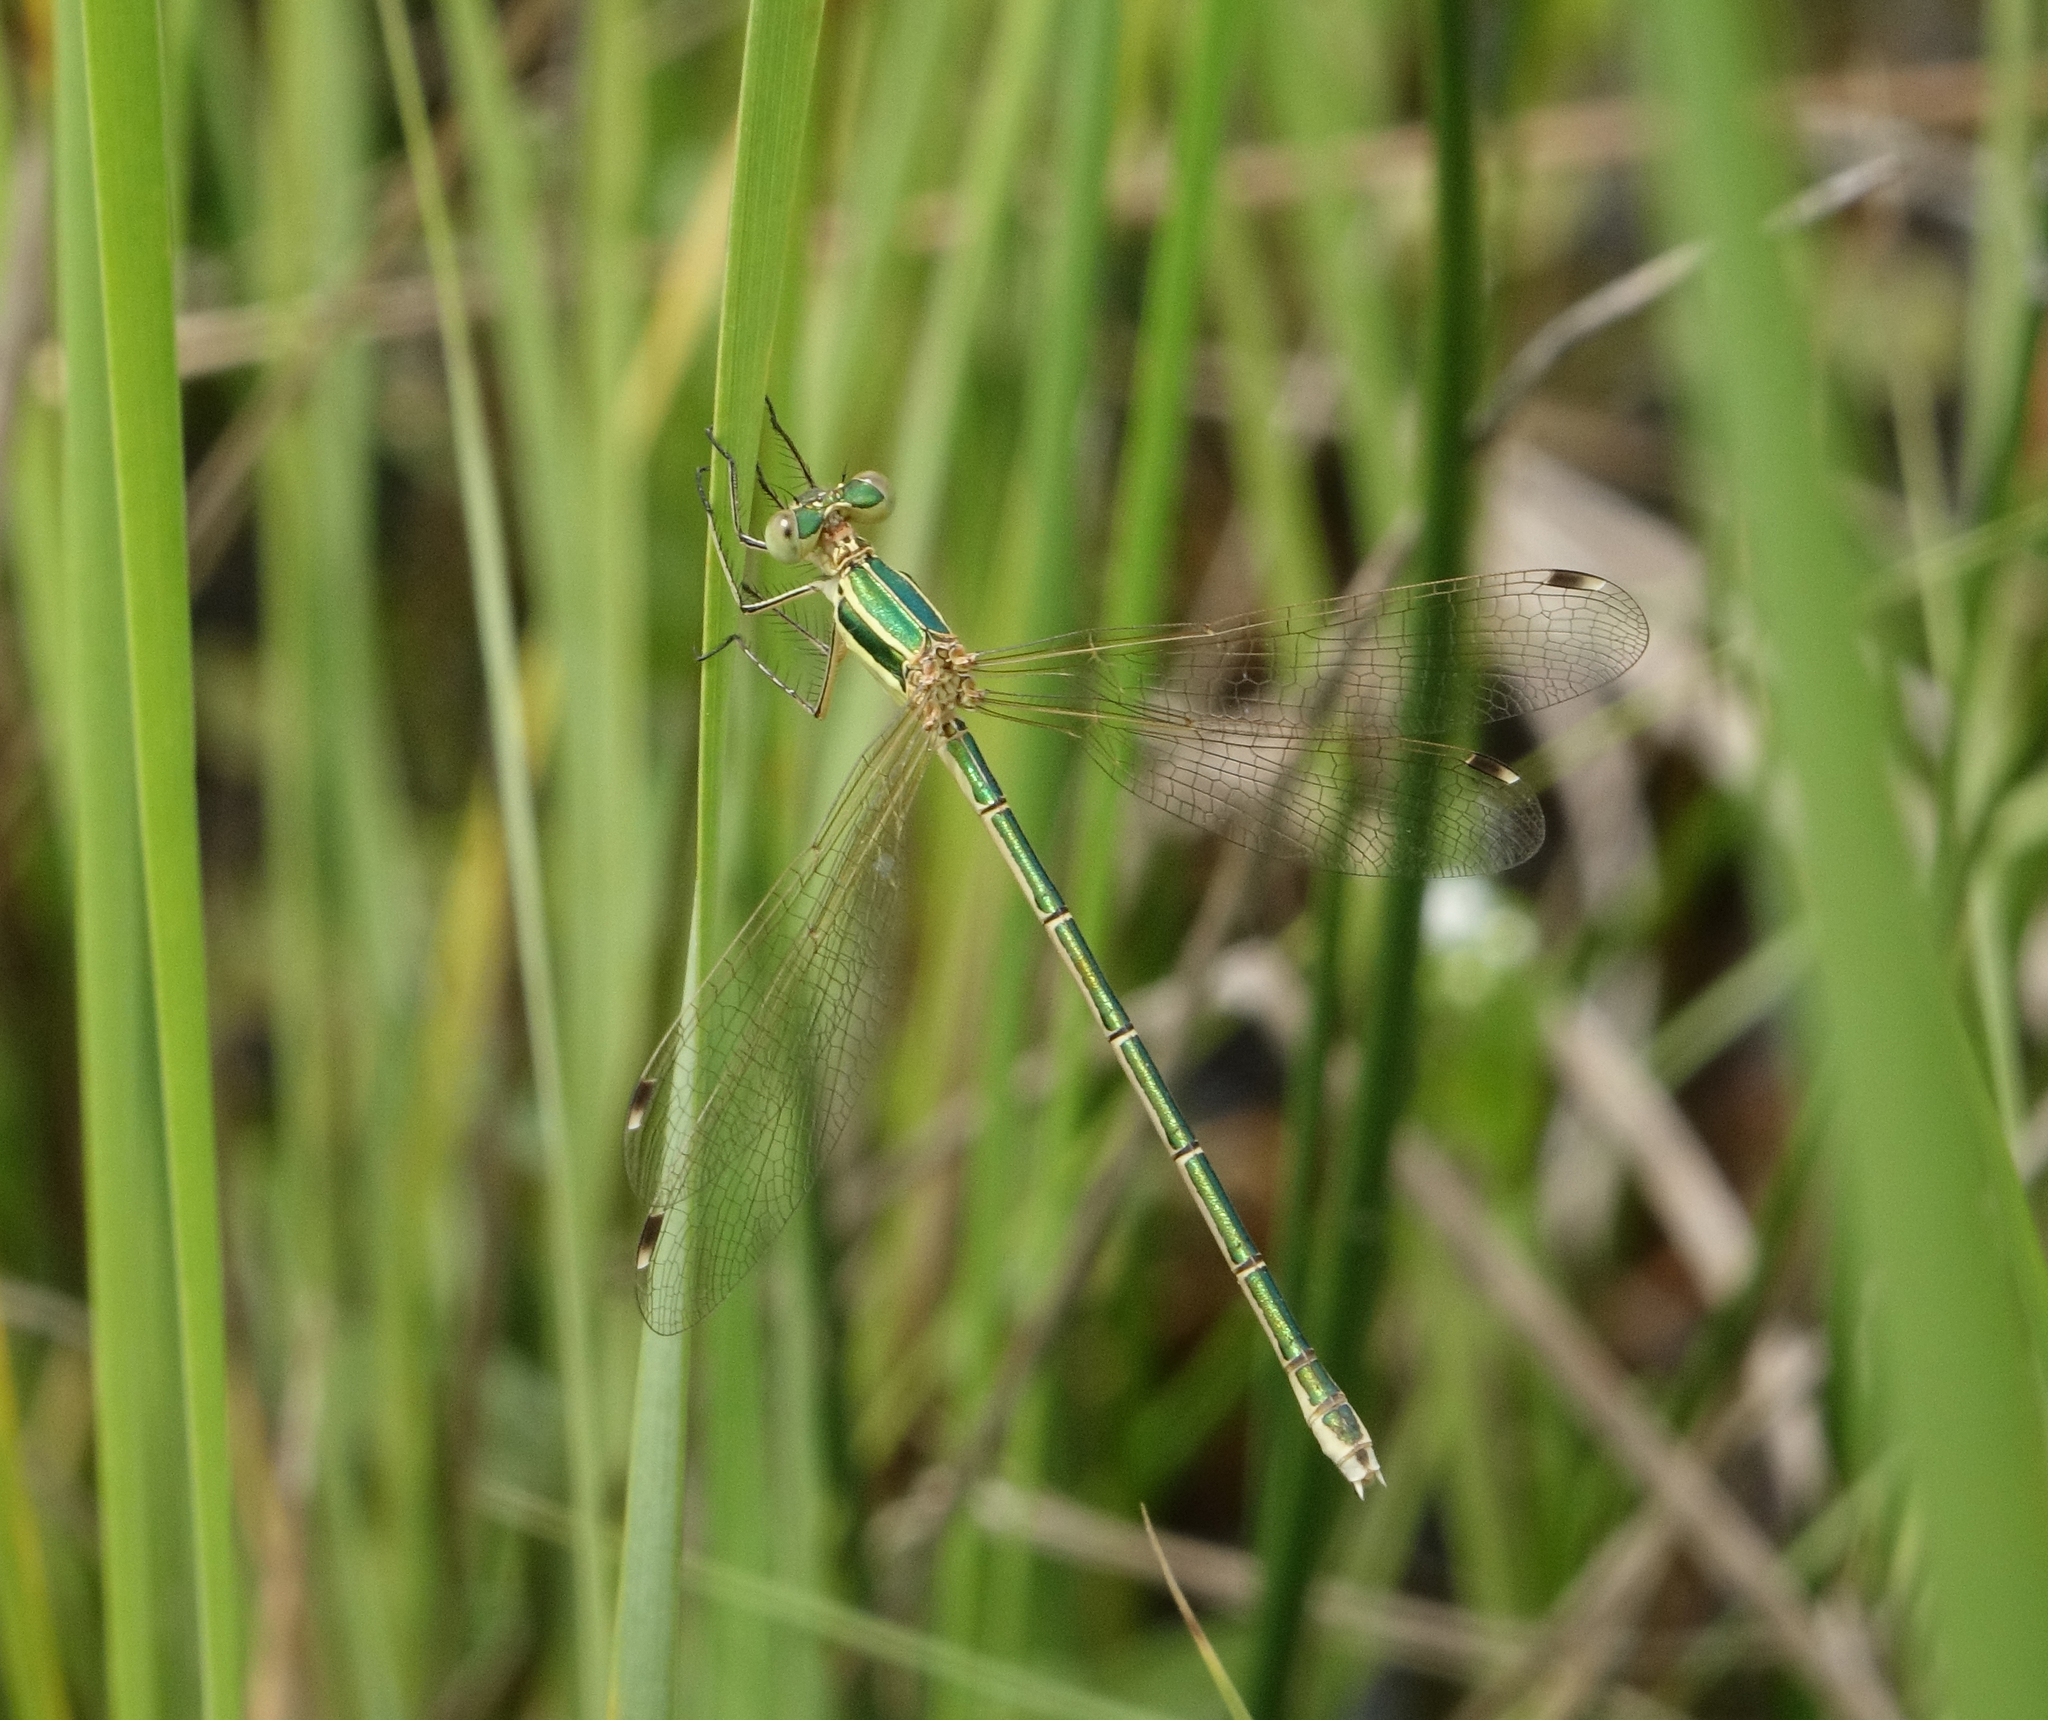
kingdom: Animalia
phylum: Arthropoda
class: Insecta
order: Odonata
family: Lestidae
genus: Lestes
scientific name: Lestes barbarus
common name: Migrant spreadwing
